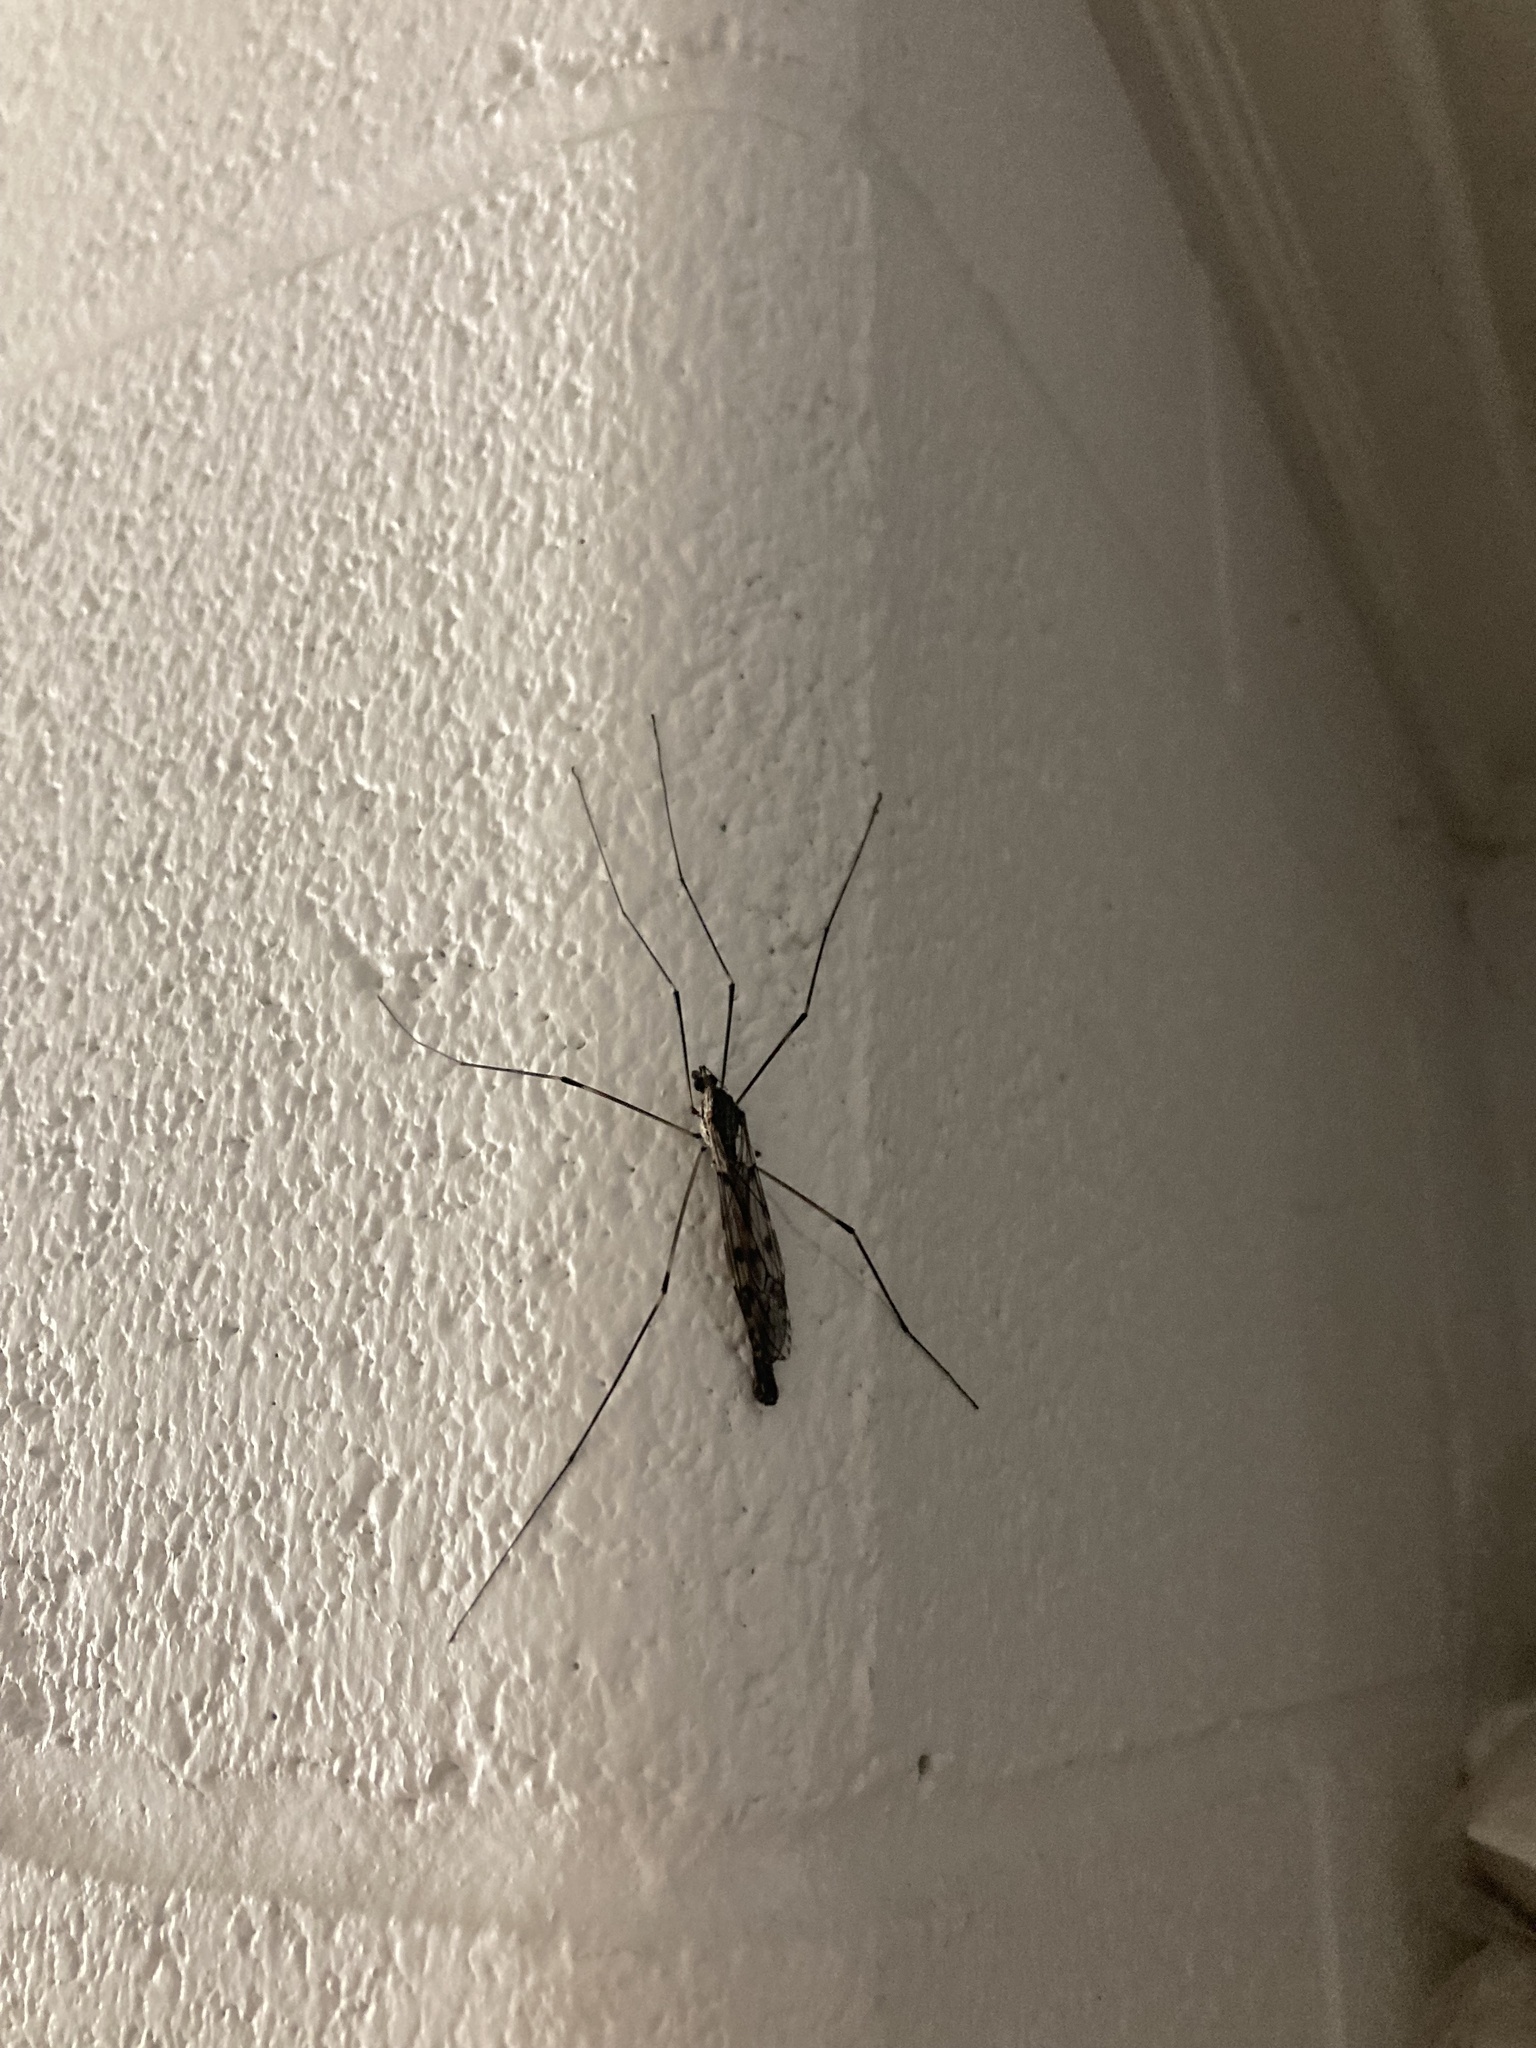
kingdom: Animalia
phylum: Arthropoda
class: Insecta
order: Diptera
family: Tipulidae
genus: Tipula
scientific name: Tipula abdominalis
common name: Giant crane fly
